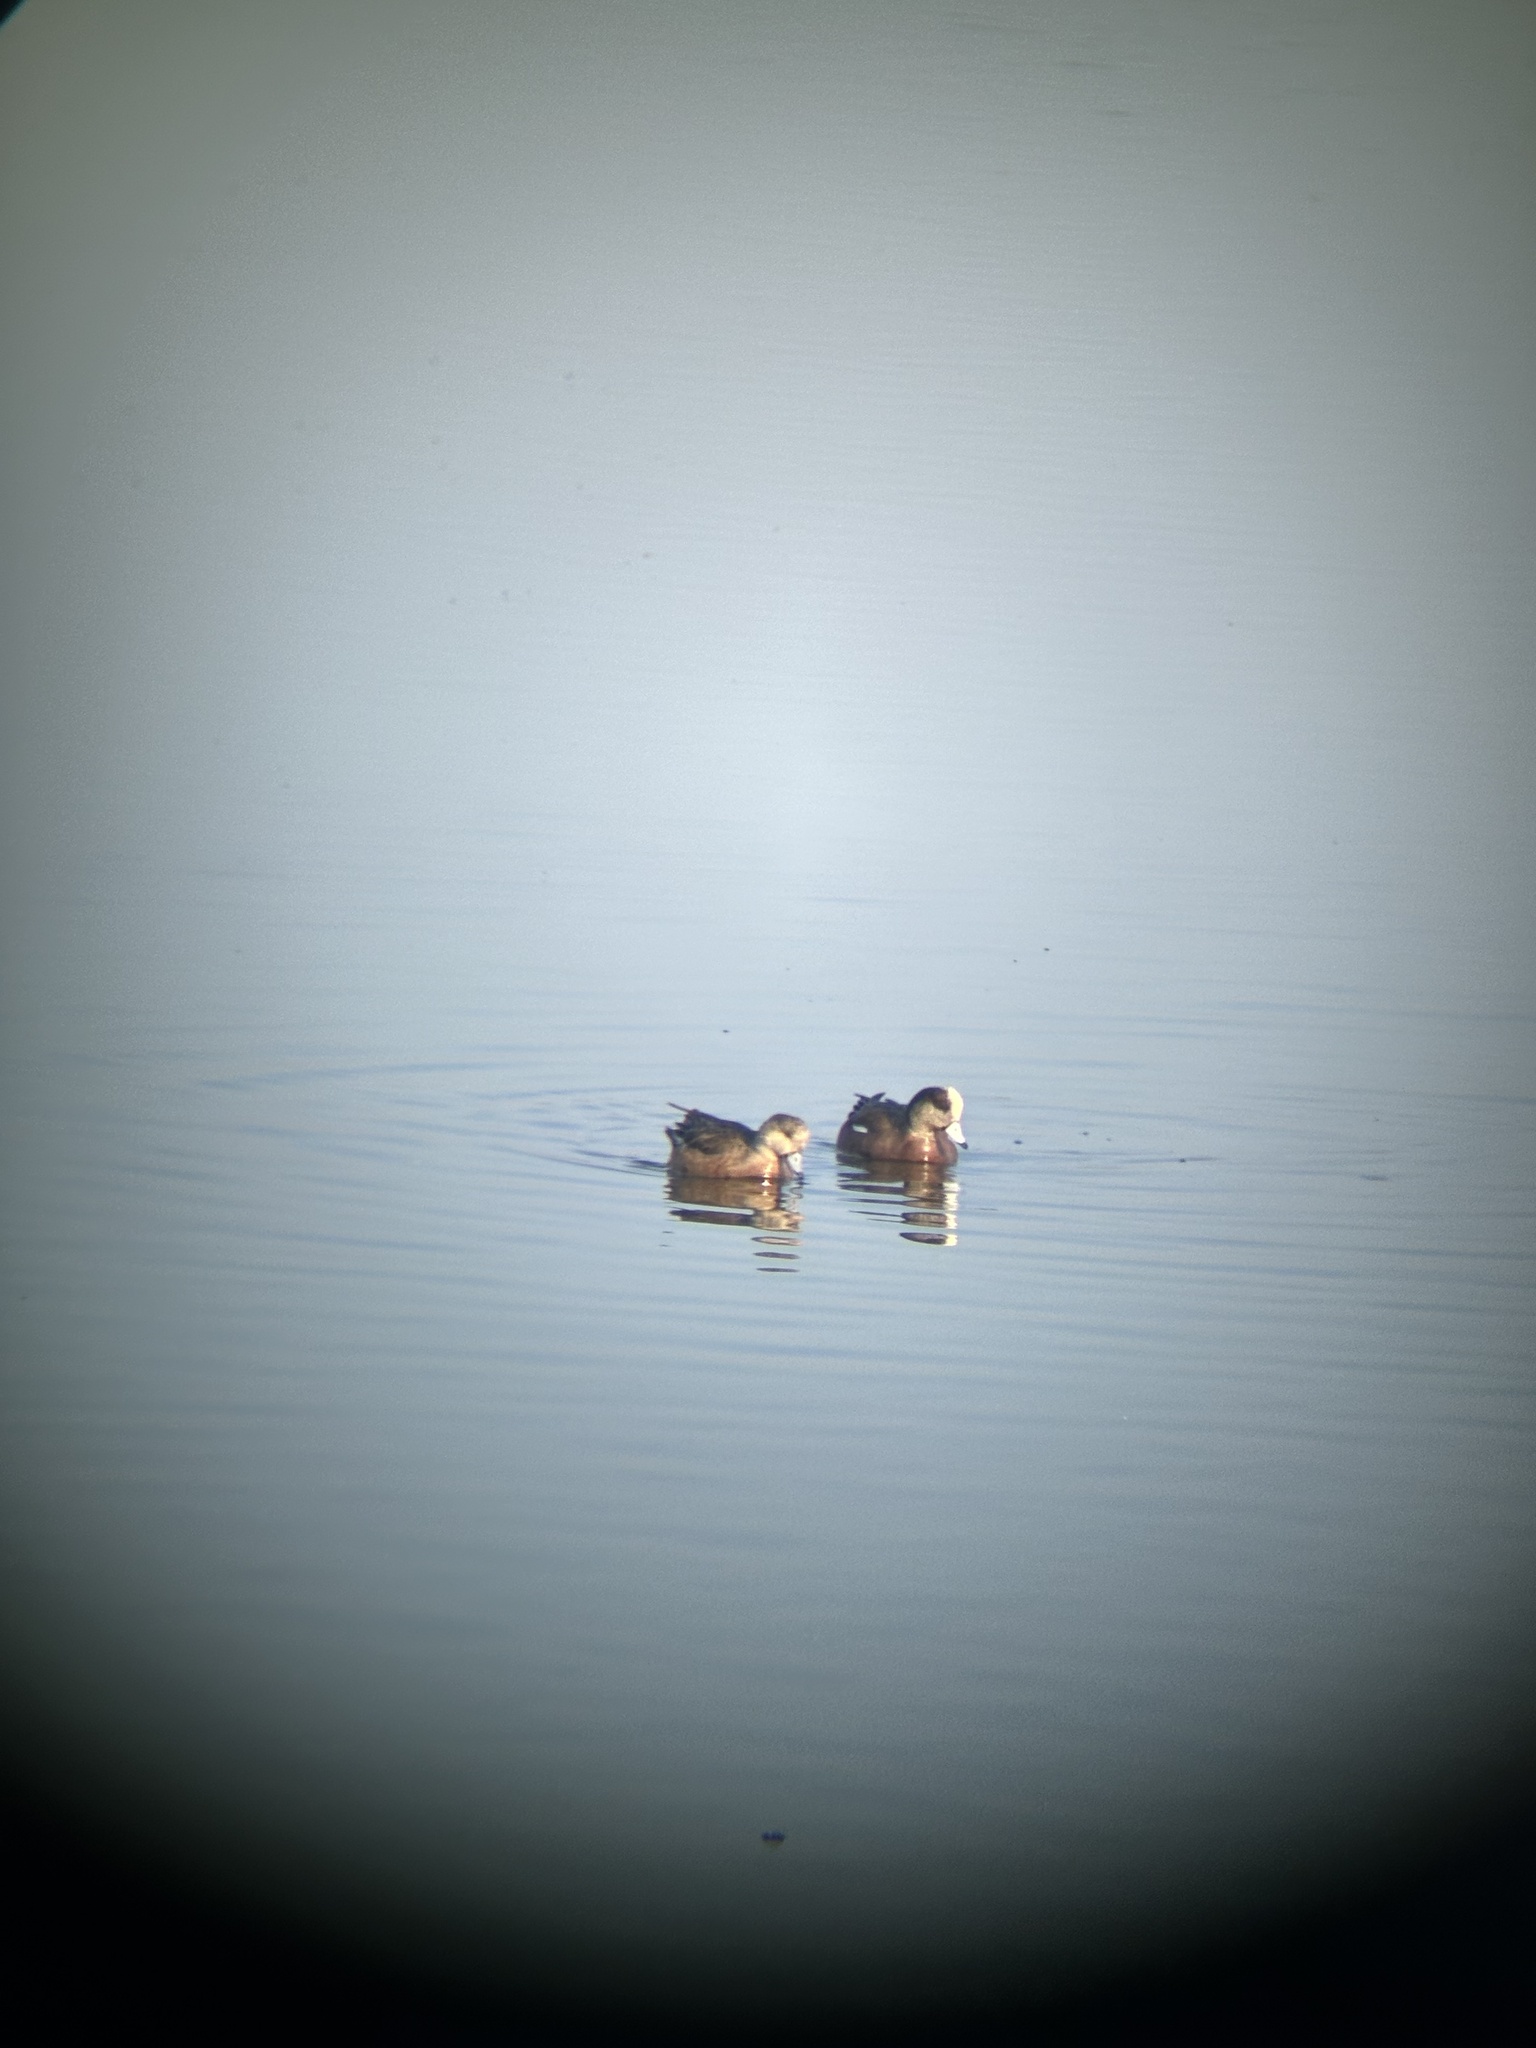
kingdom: Animalia
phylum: Chordata
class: Aves
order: Anseriformes
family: Anatidae
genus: Mareca
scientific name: Mareca americana
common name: American wigeon
